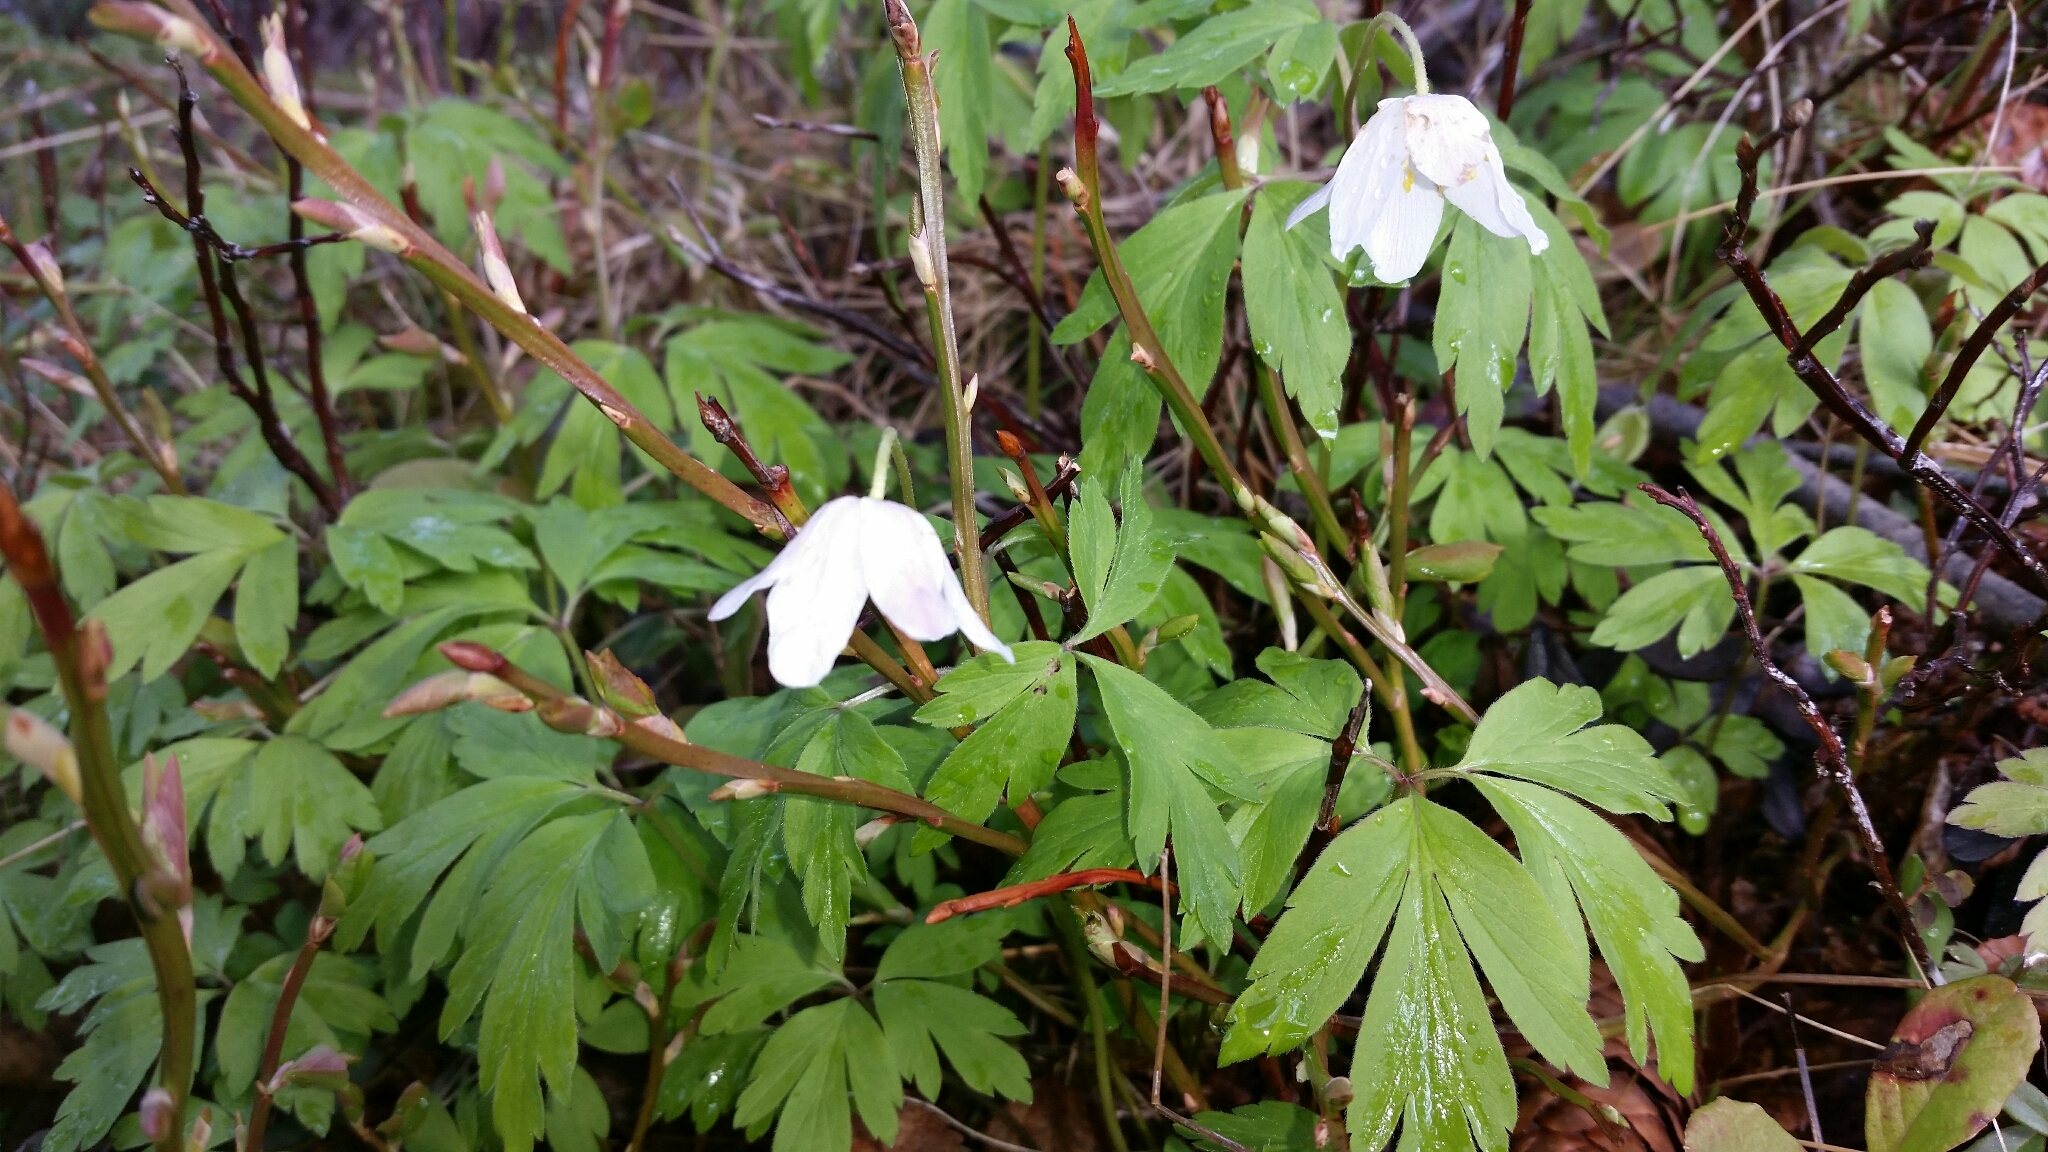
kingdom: Plantae
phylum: Tracheophyta
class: Magnoliopsida
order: Ranunculales
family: Ranunculaceae
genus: Anemone
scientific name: Anemone nemorosa
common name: Wood anemone
